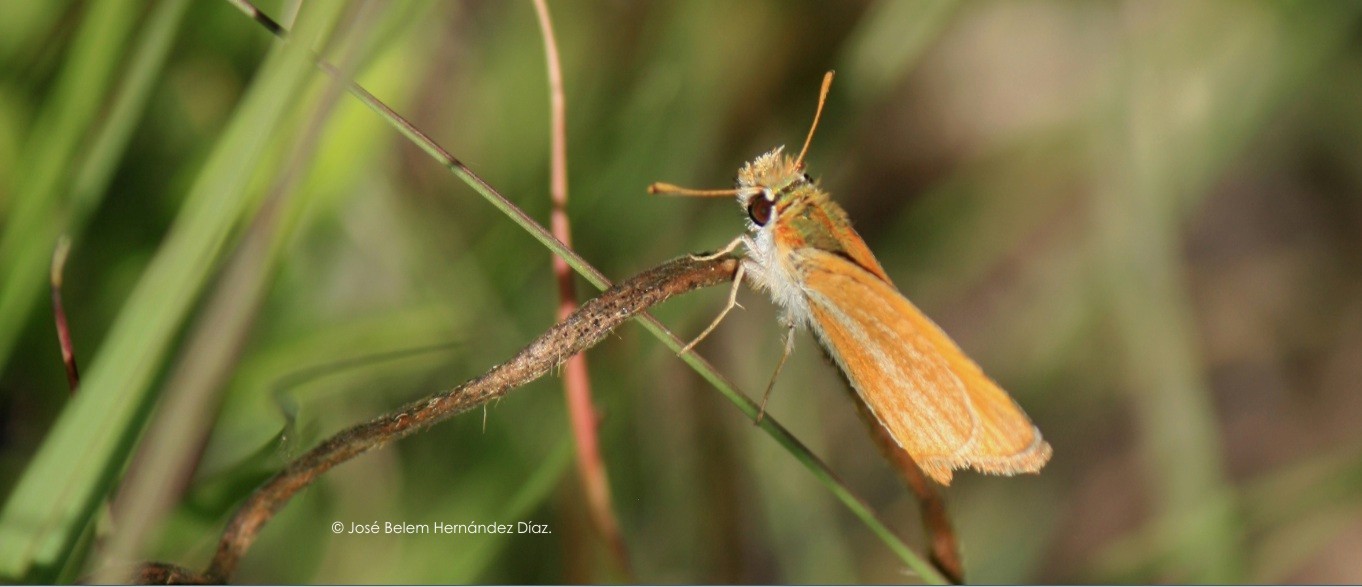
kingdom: Animalia
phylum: Arthropoda
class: Insecta
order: Lepidoptera
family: Hesperiidae
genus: Copaeodes
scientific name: Copaeodes minima
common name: Southern skipperling
